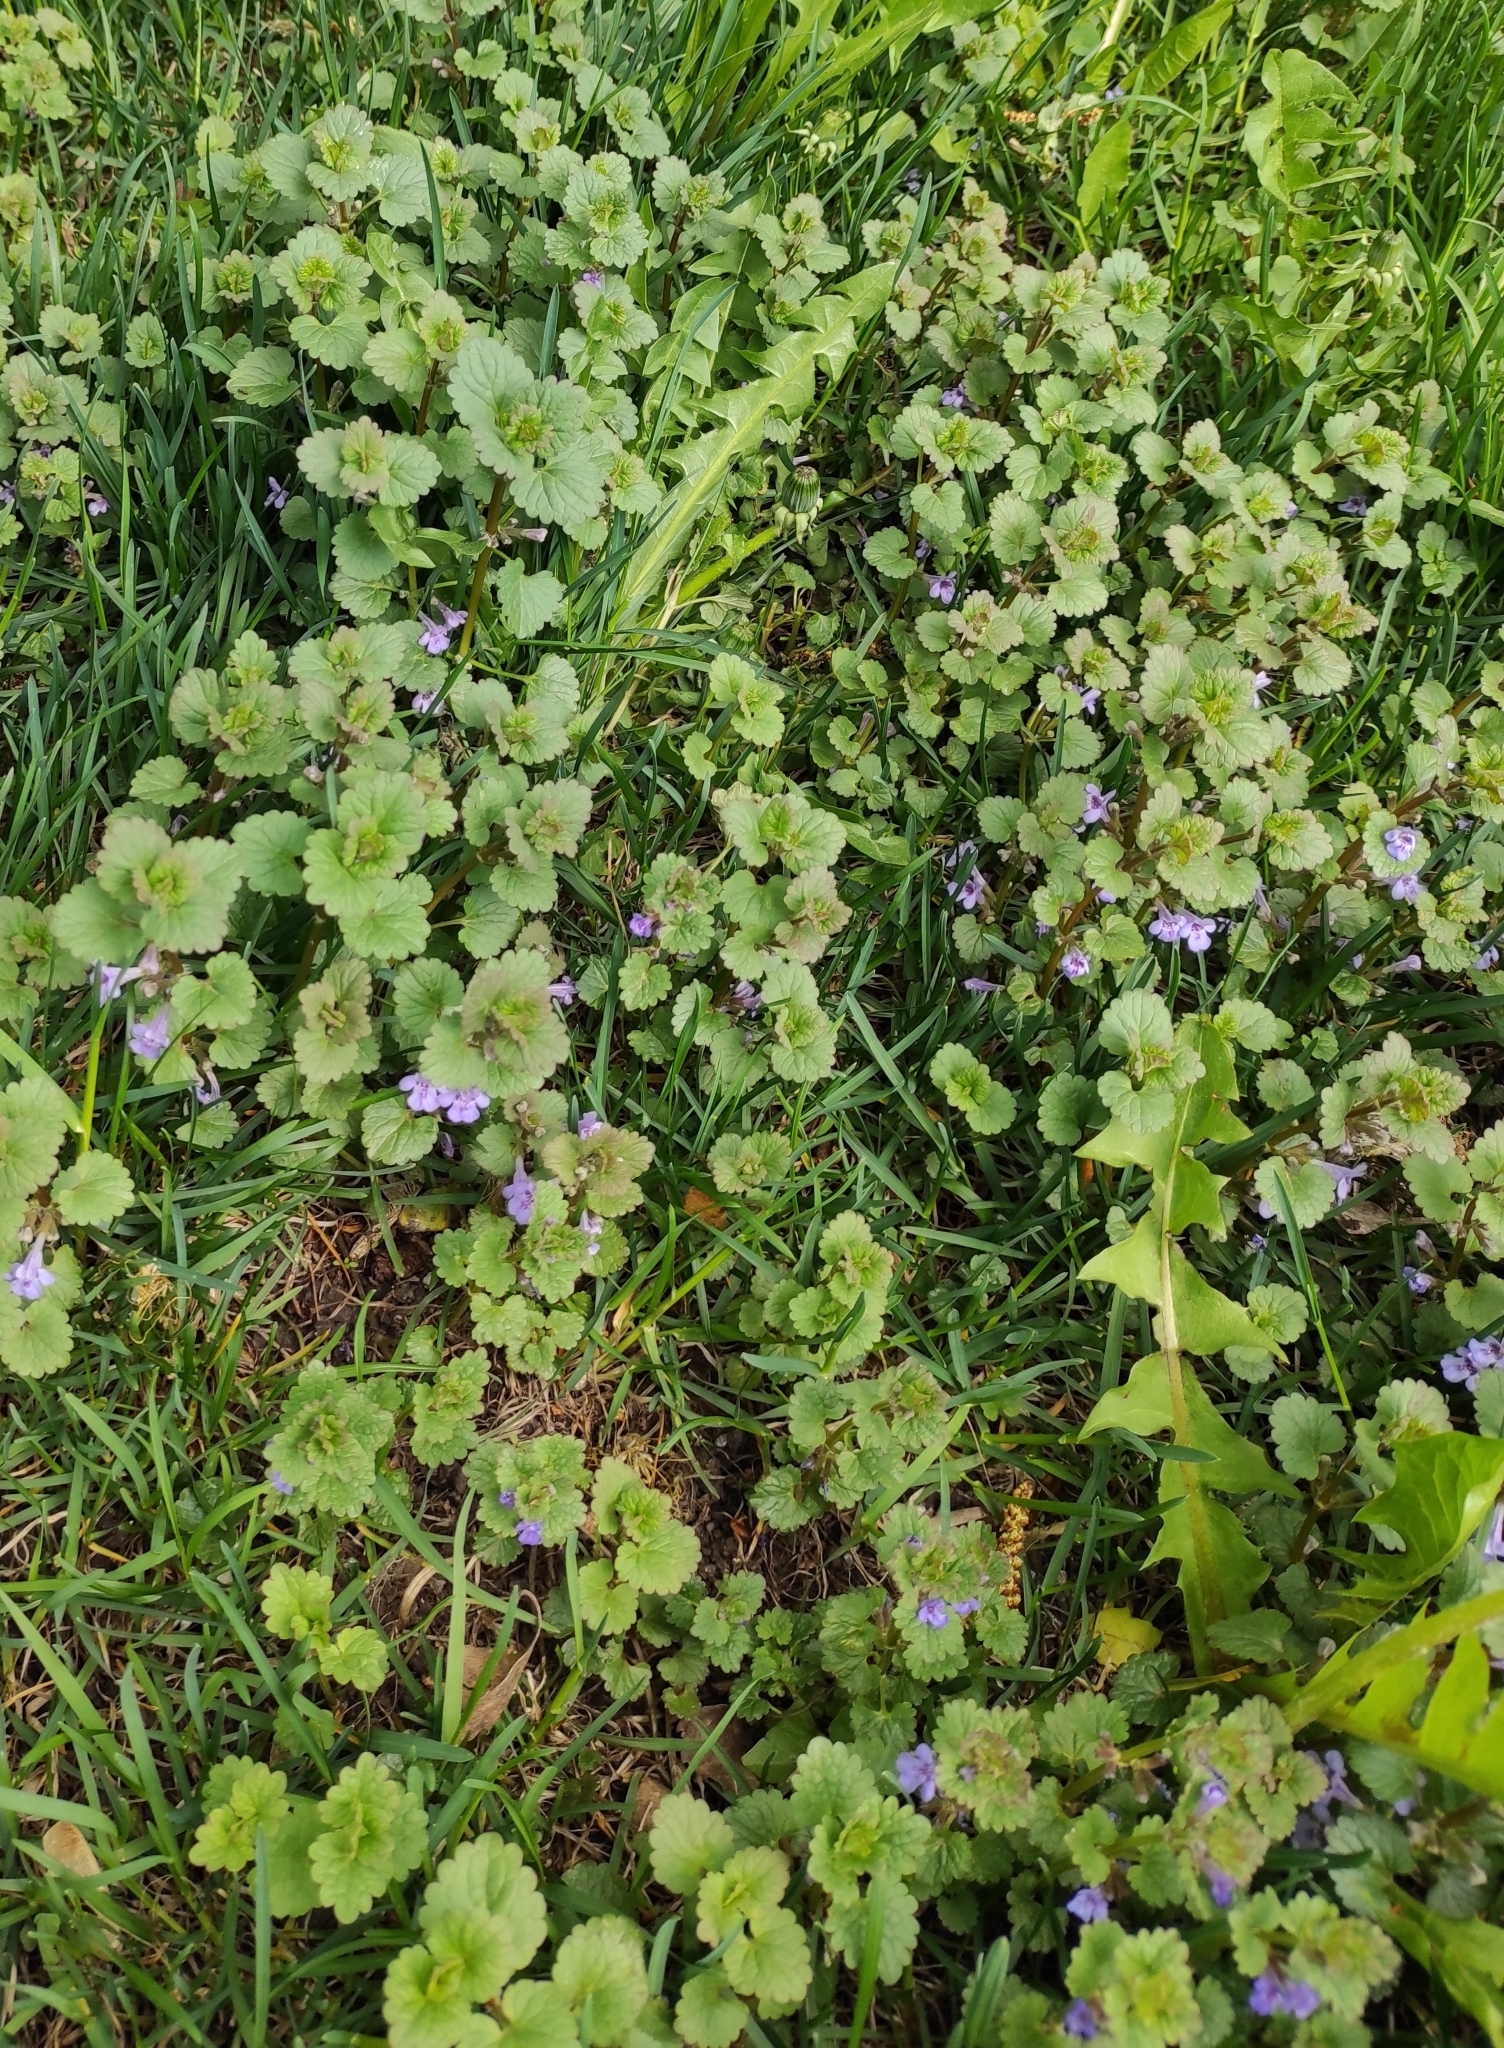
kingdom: Plantae
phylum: Tracheophyta
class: Magnoliopsida
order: Lamiales
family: Lamiaceae
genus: Glechoma
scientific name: Glechoma hederacea
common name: Ground ivy
